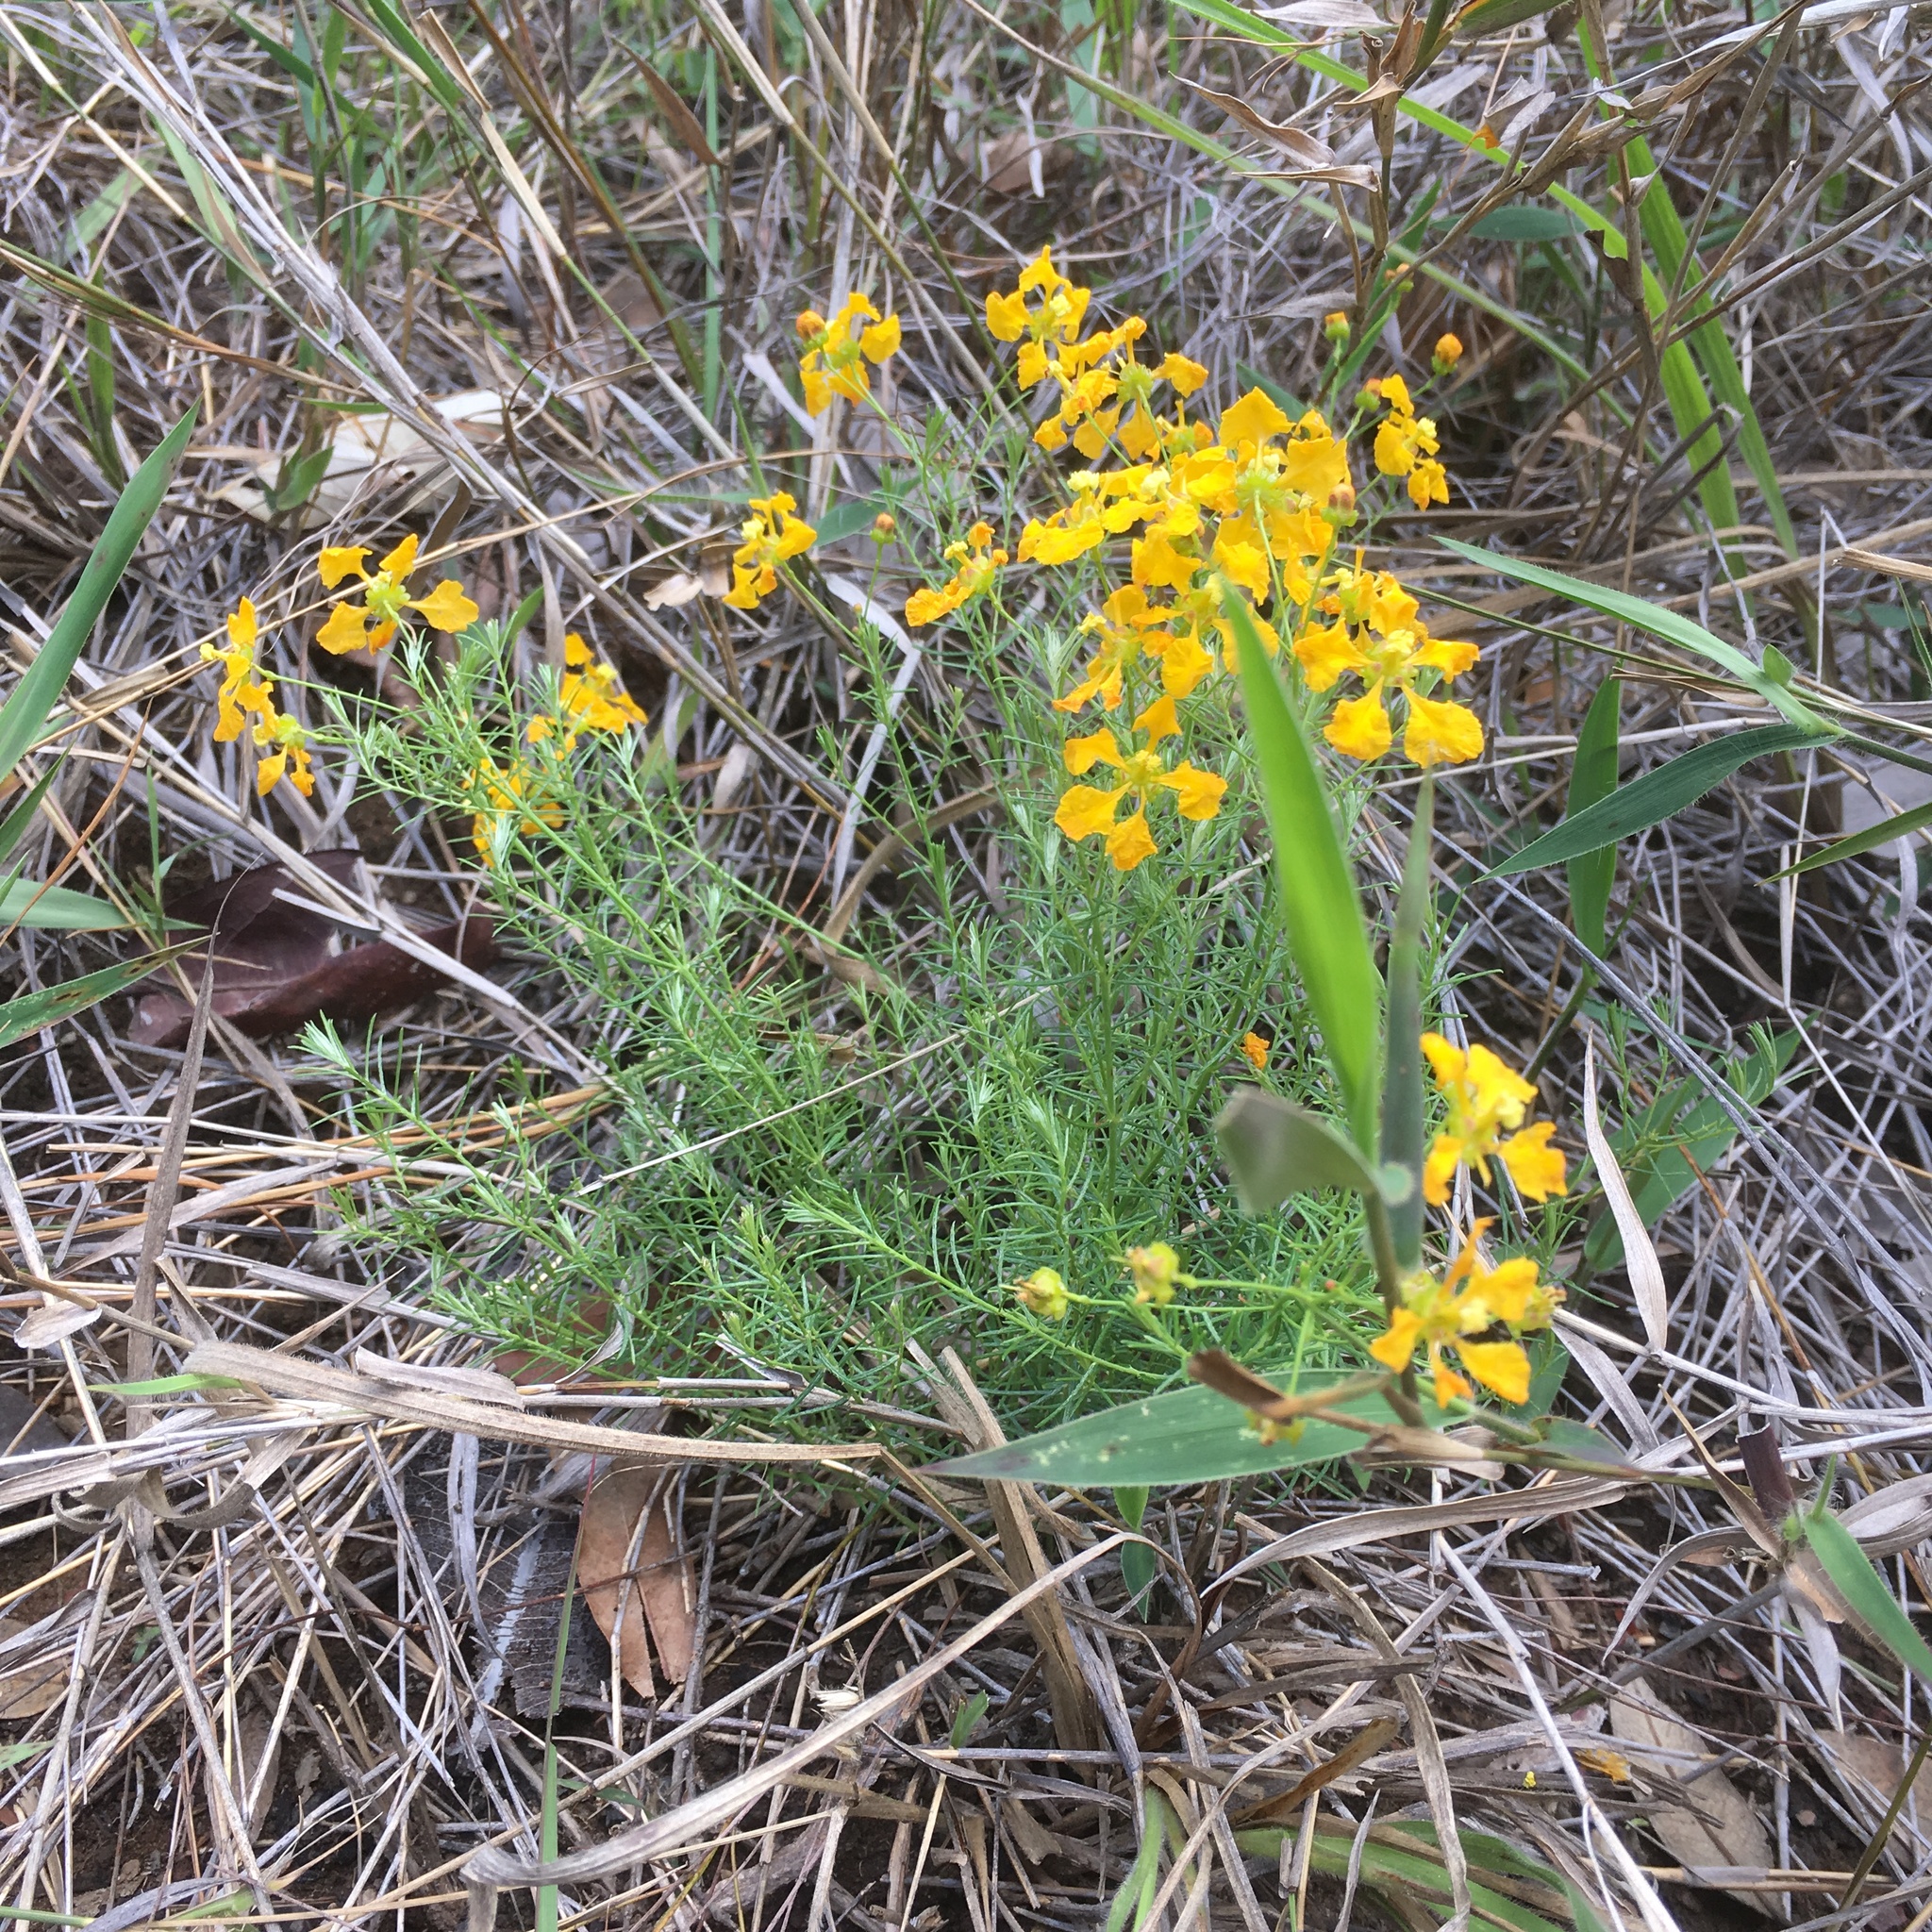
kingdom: Plantae
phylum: Tracheophyta
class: Magnoliopsida
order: Malpighiales
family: Malpighiaceae
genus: Camarea
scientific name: Camarea ericoides
